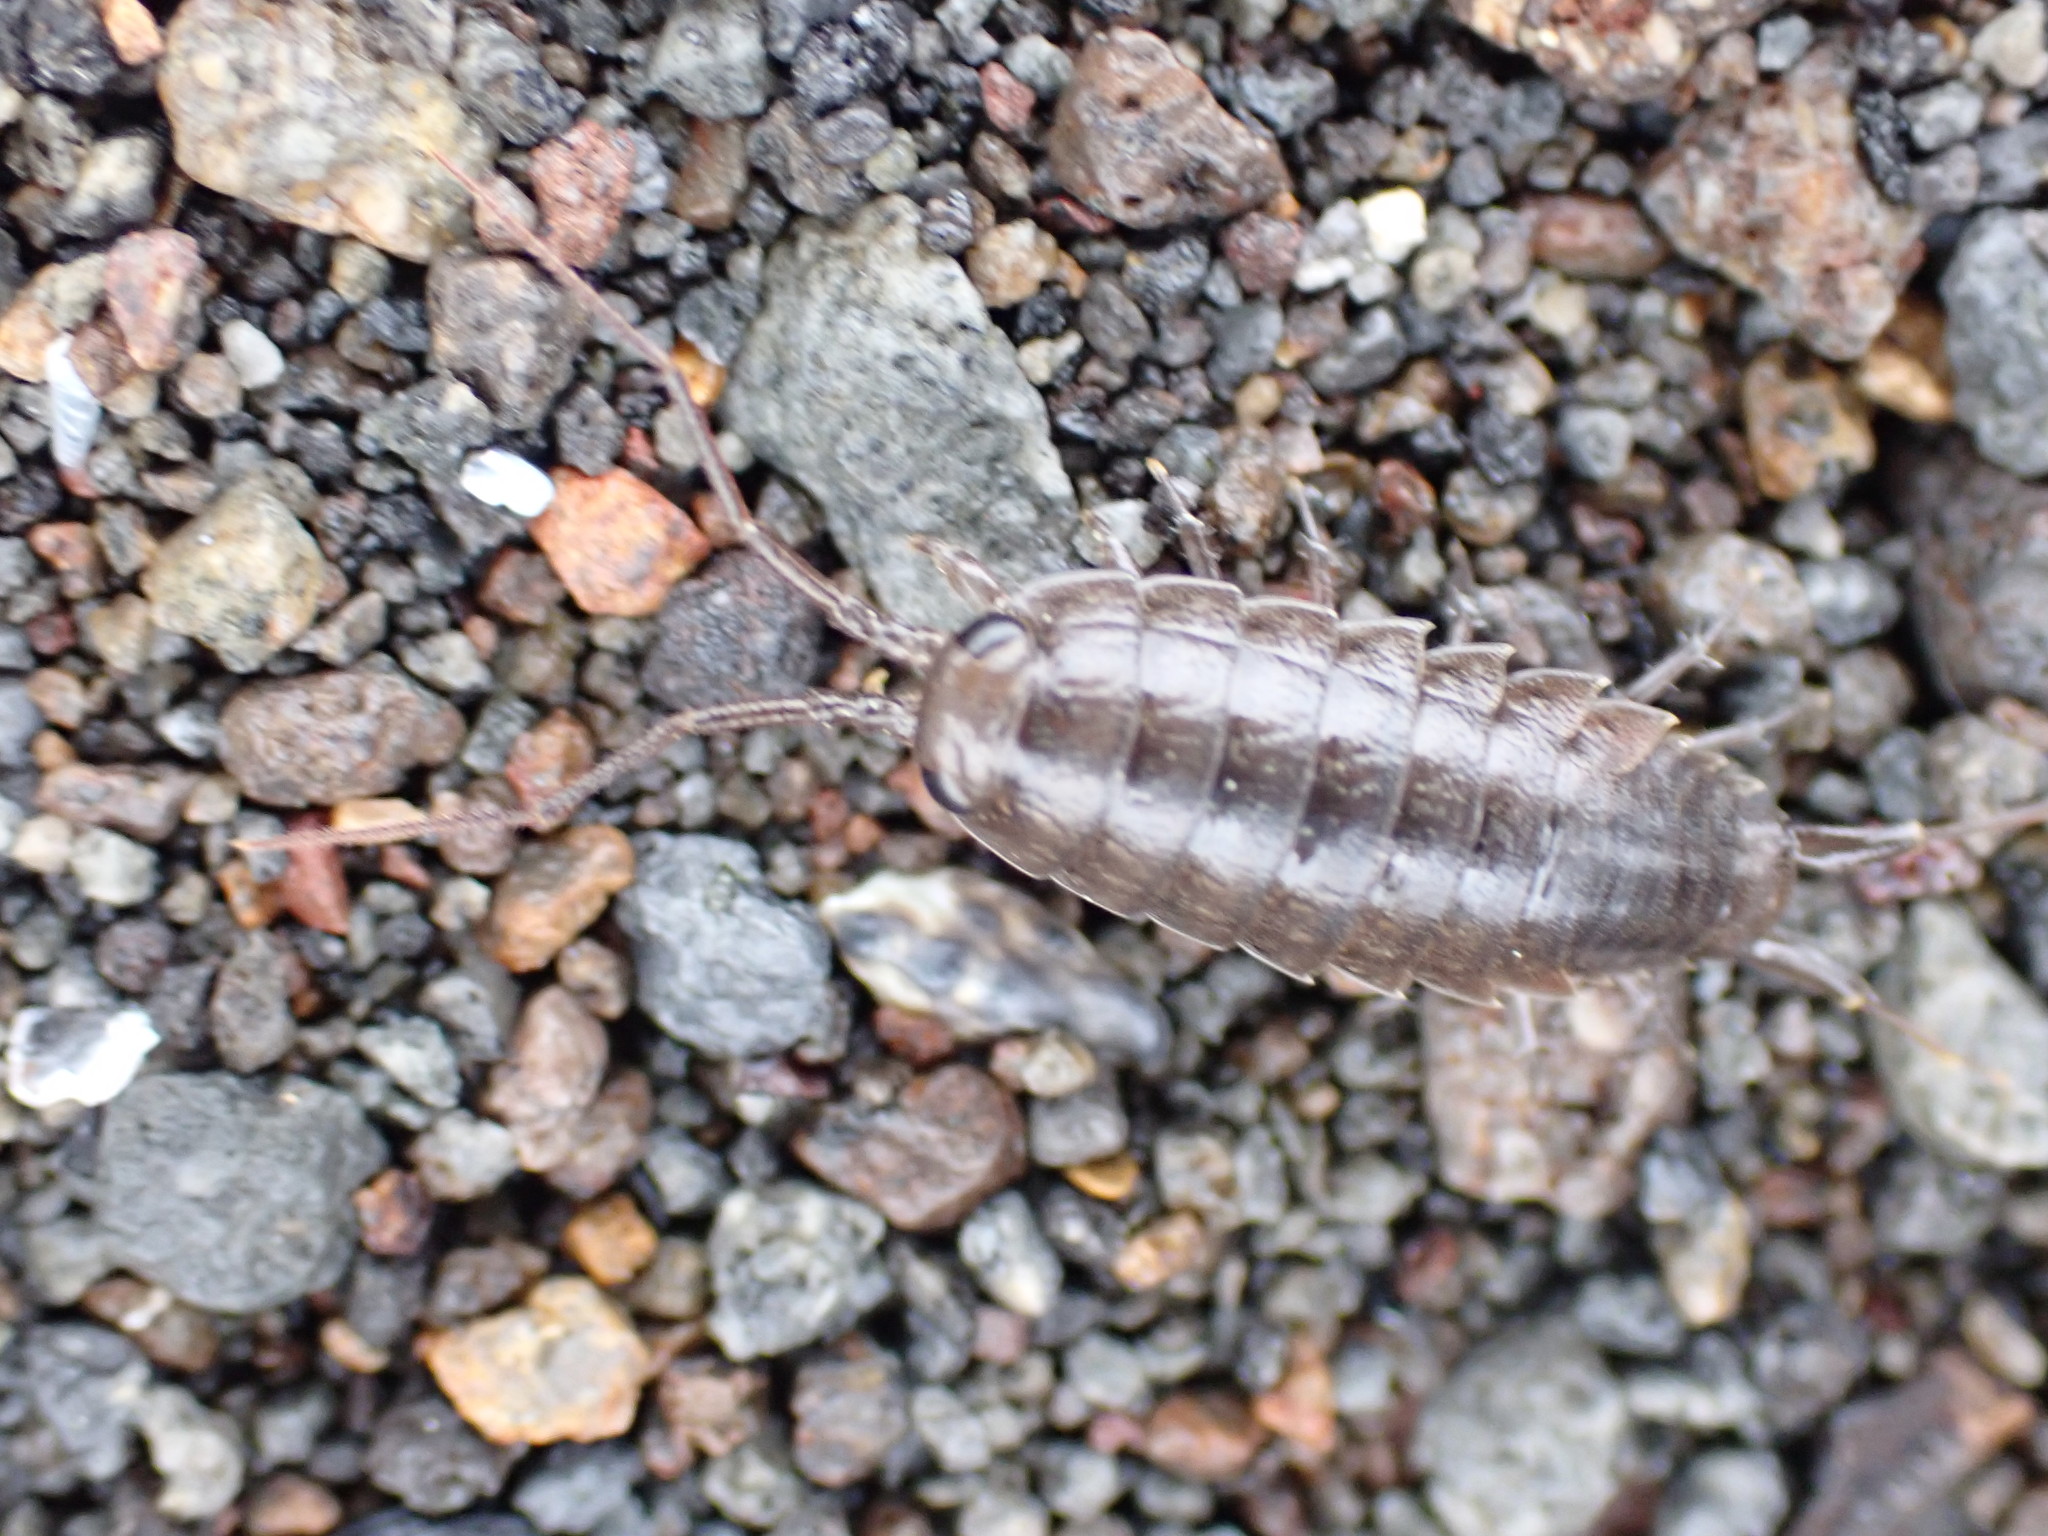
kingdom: Animalia
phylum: Arthropoda
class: Malacostraca
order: Isopoda
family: Ligiidae
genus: Ligia
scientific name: Ligia novizealandiae
